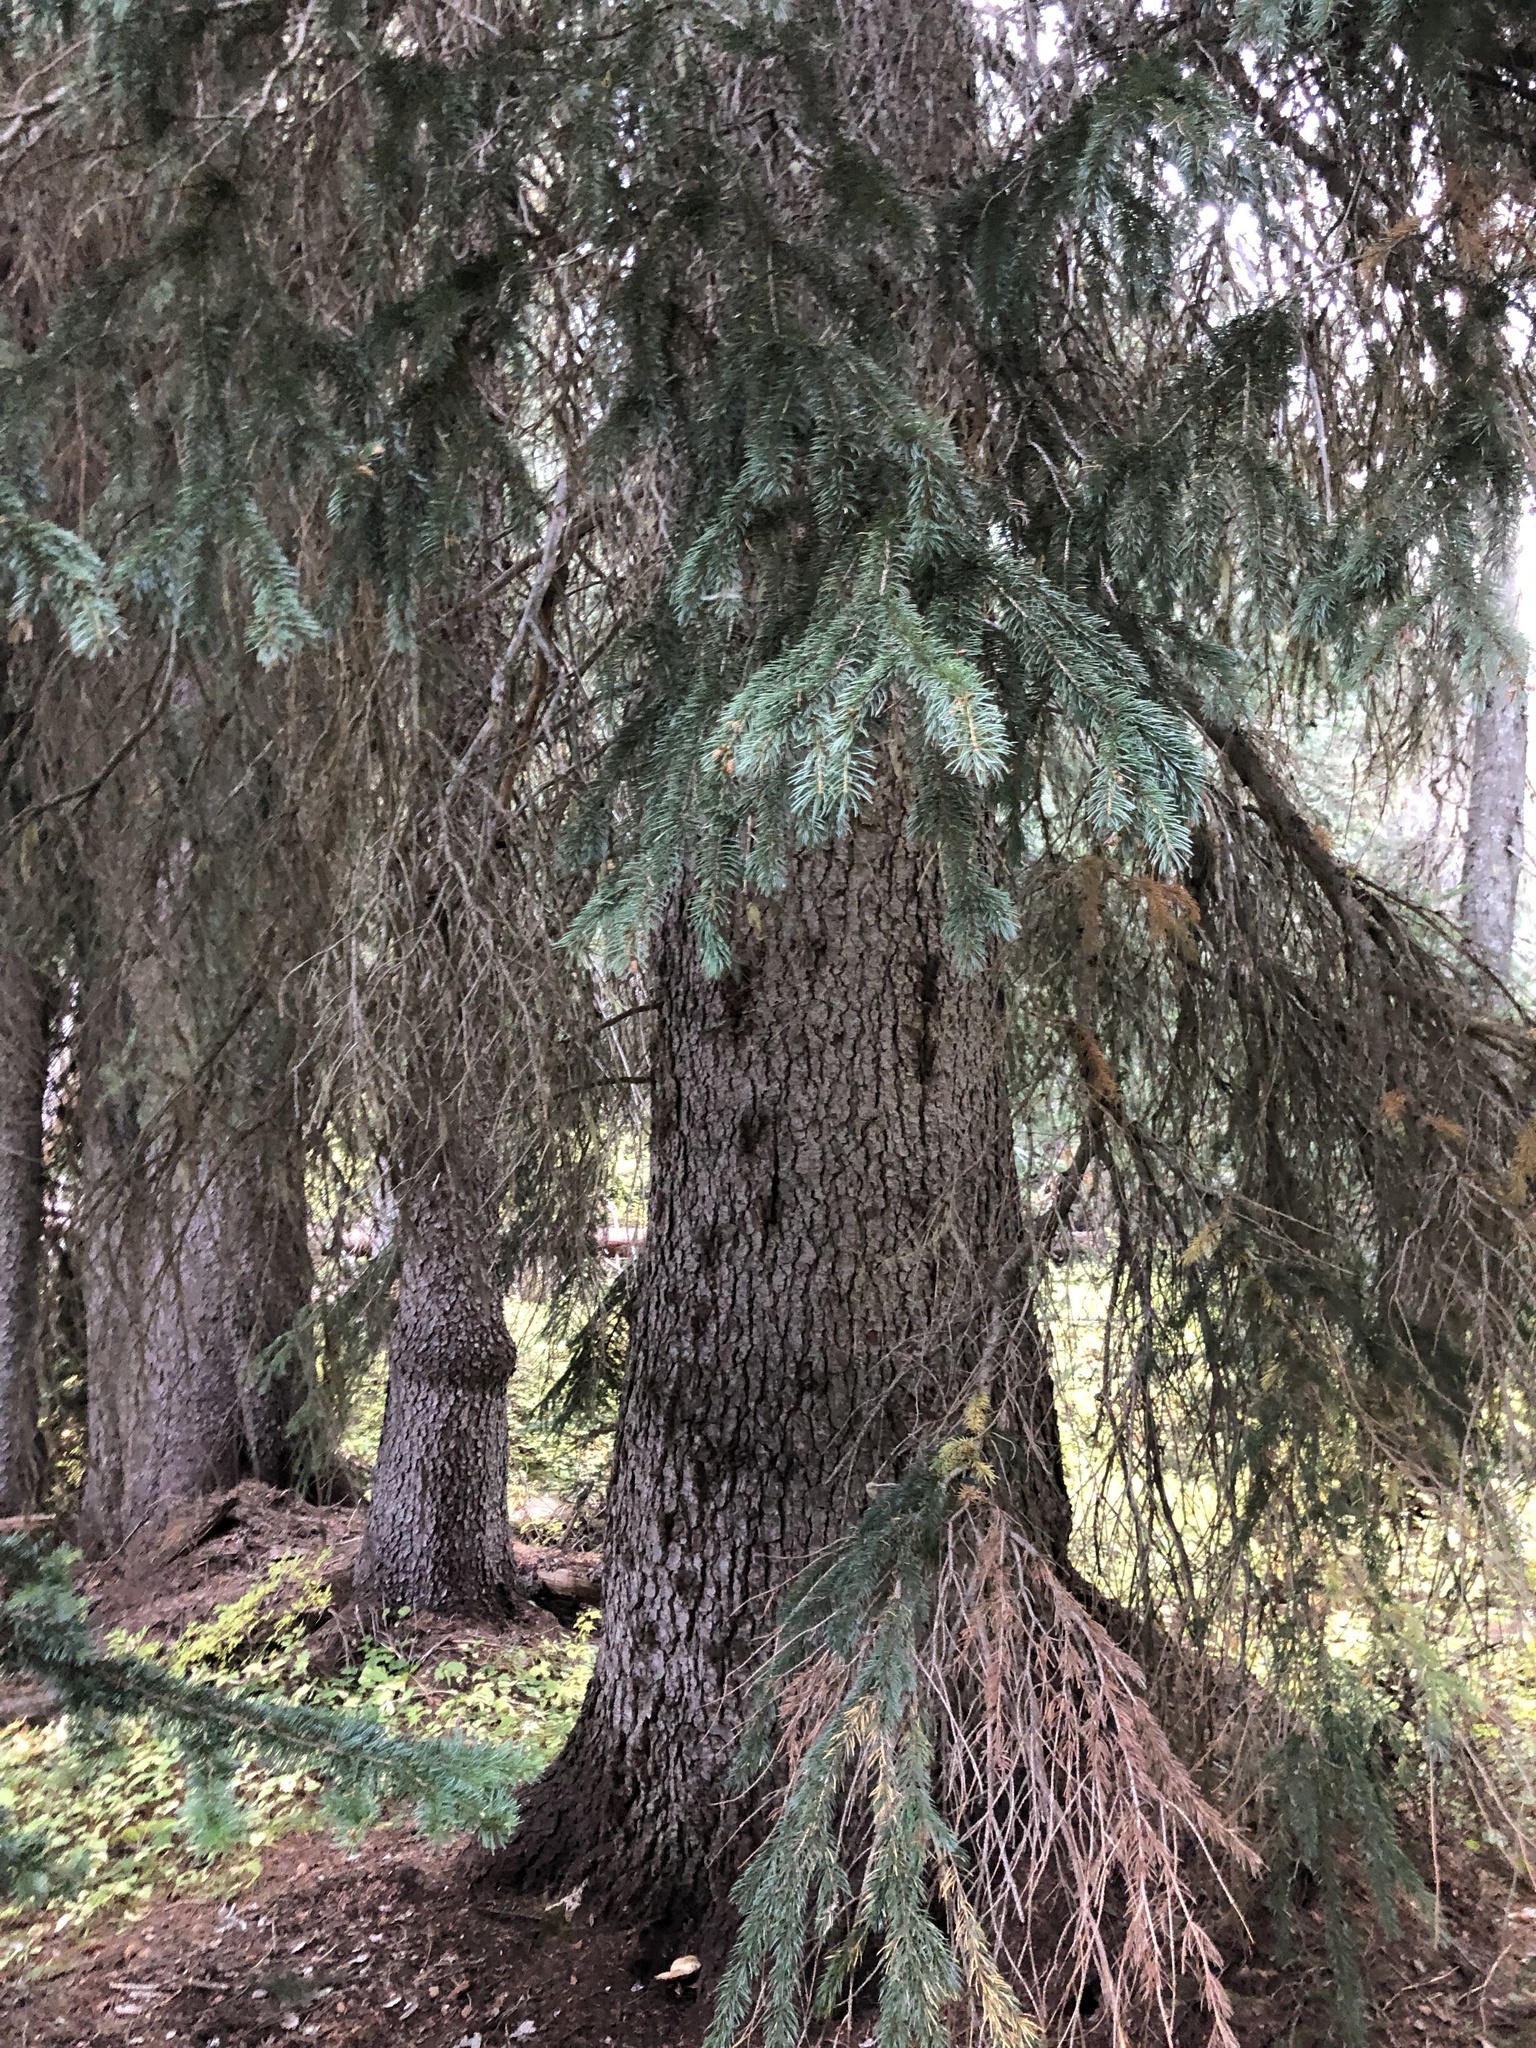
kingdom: Plantae
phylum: Tracheophyta
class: Pinopsida
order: Pinales
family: Pinaceae
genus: Picea
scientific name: Picea engelmannii
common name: Engelmann spruce
